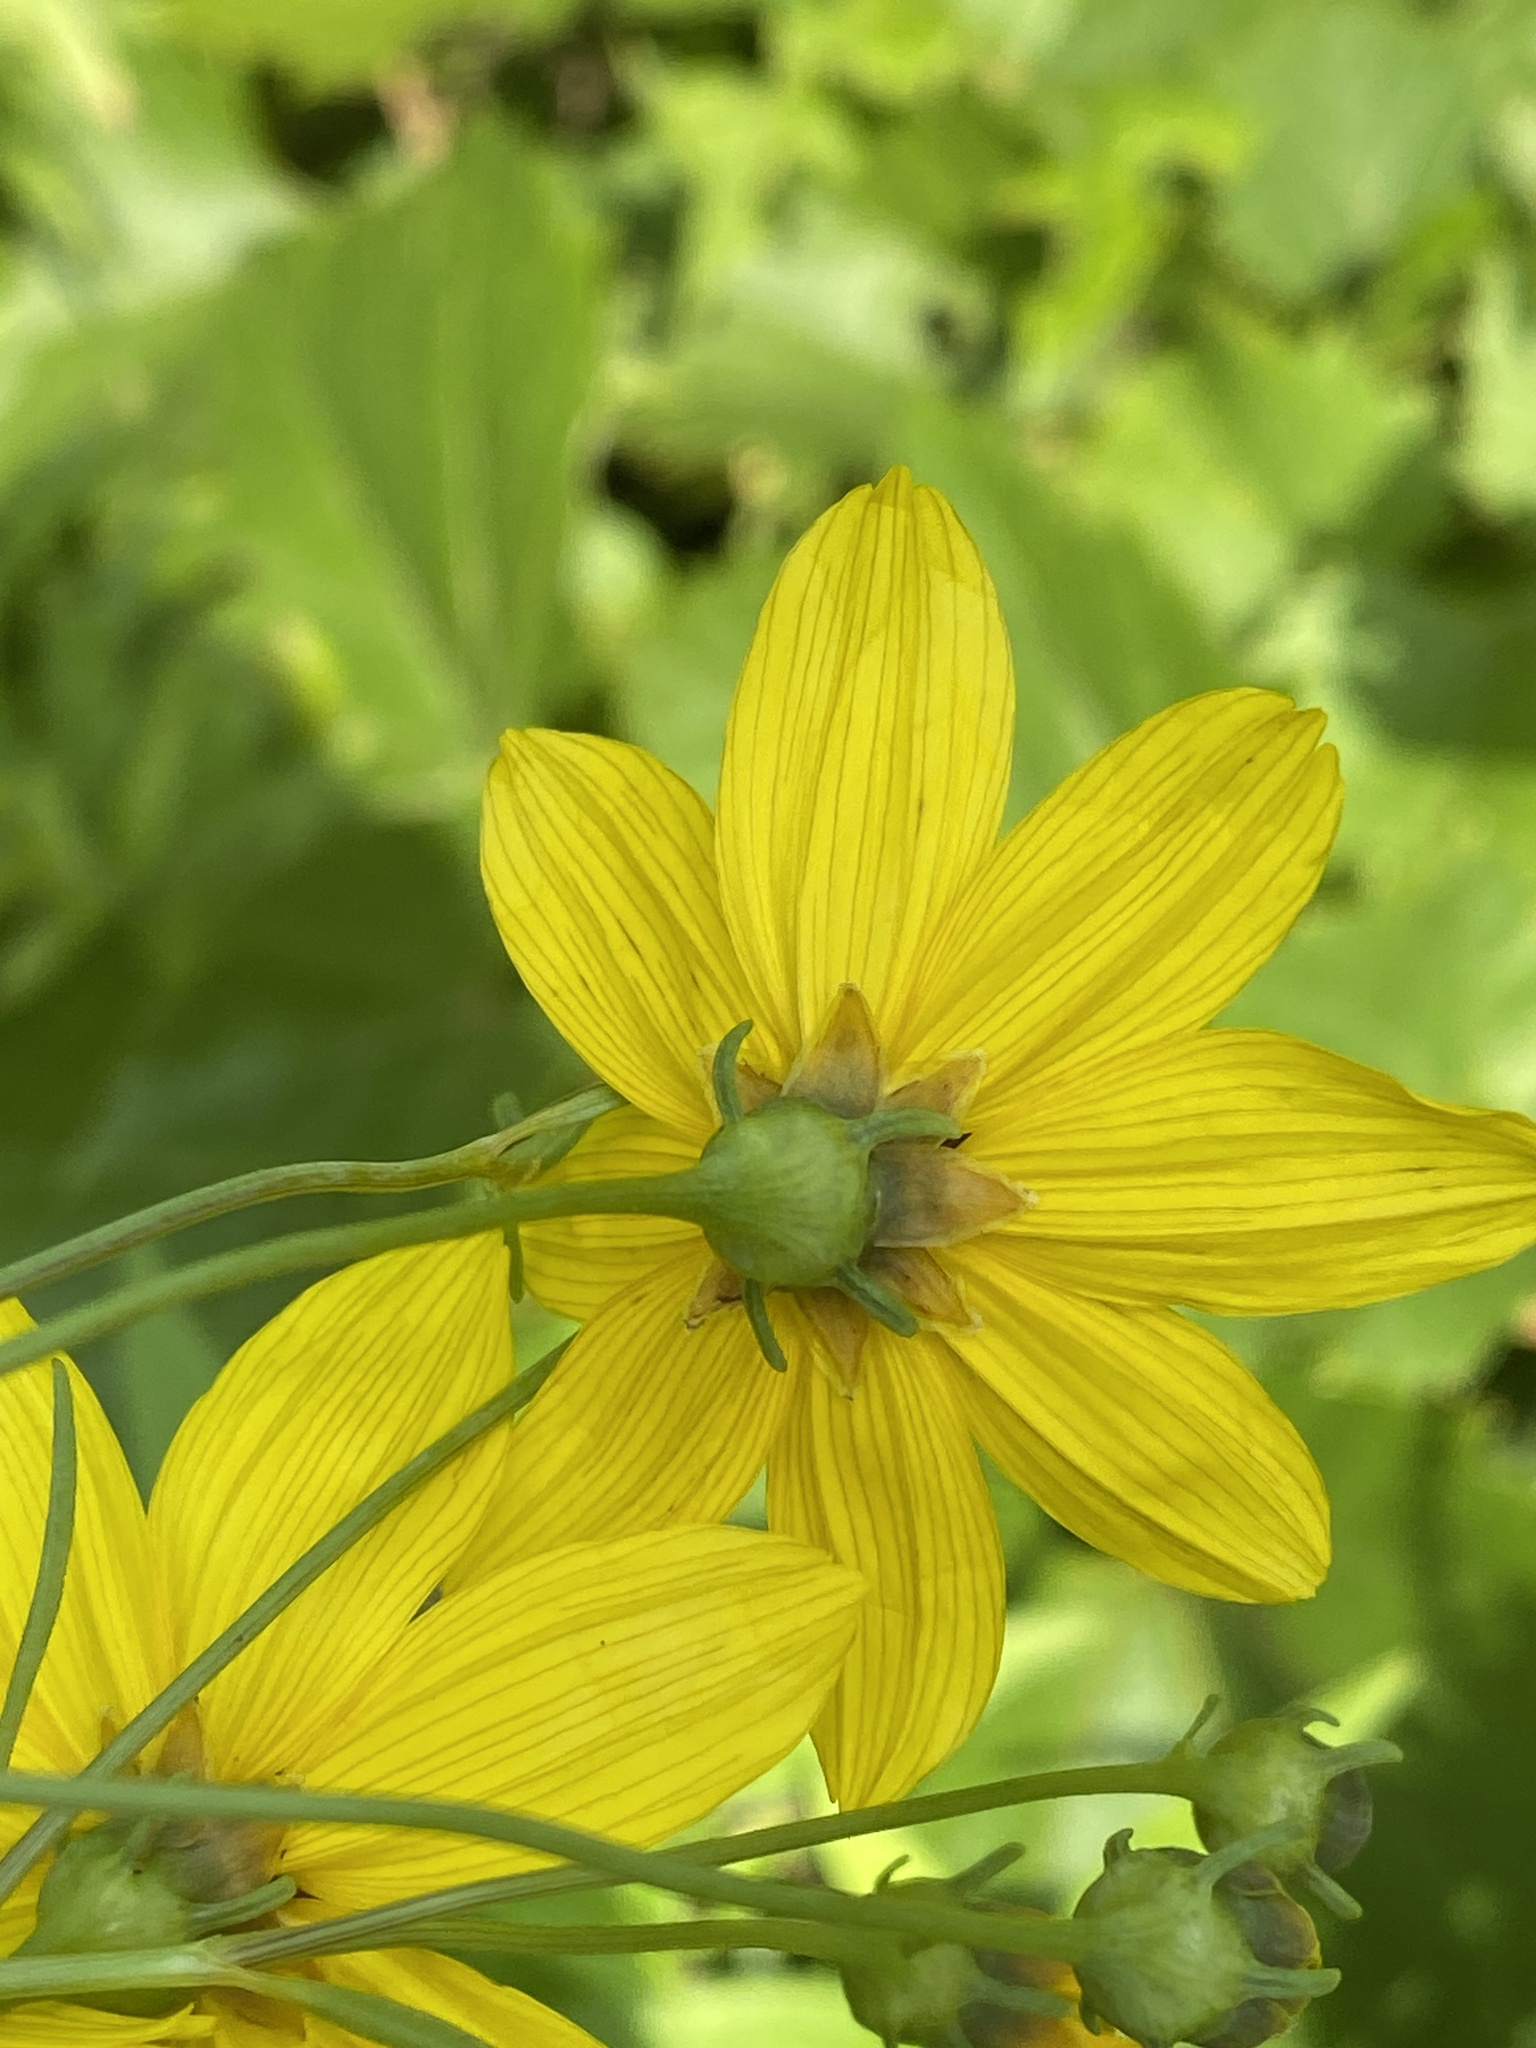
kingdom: Plantae
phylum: Tracheophyta
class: Magnoliopsida
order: Asterales
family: Asteraceae
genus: Coreopsis
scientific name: Coreopsis tripteris
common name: Tall coreopsis
